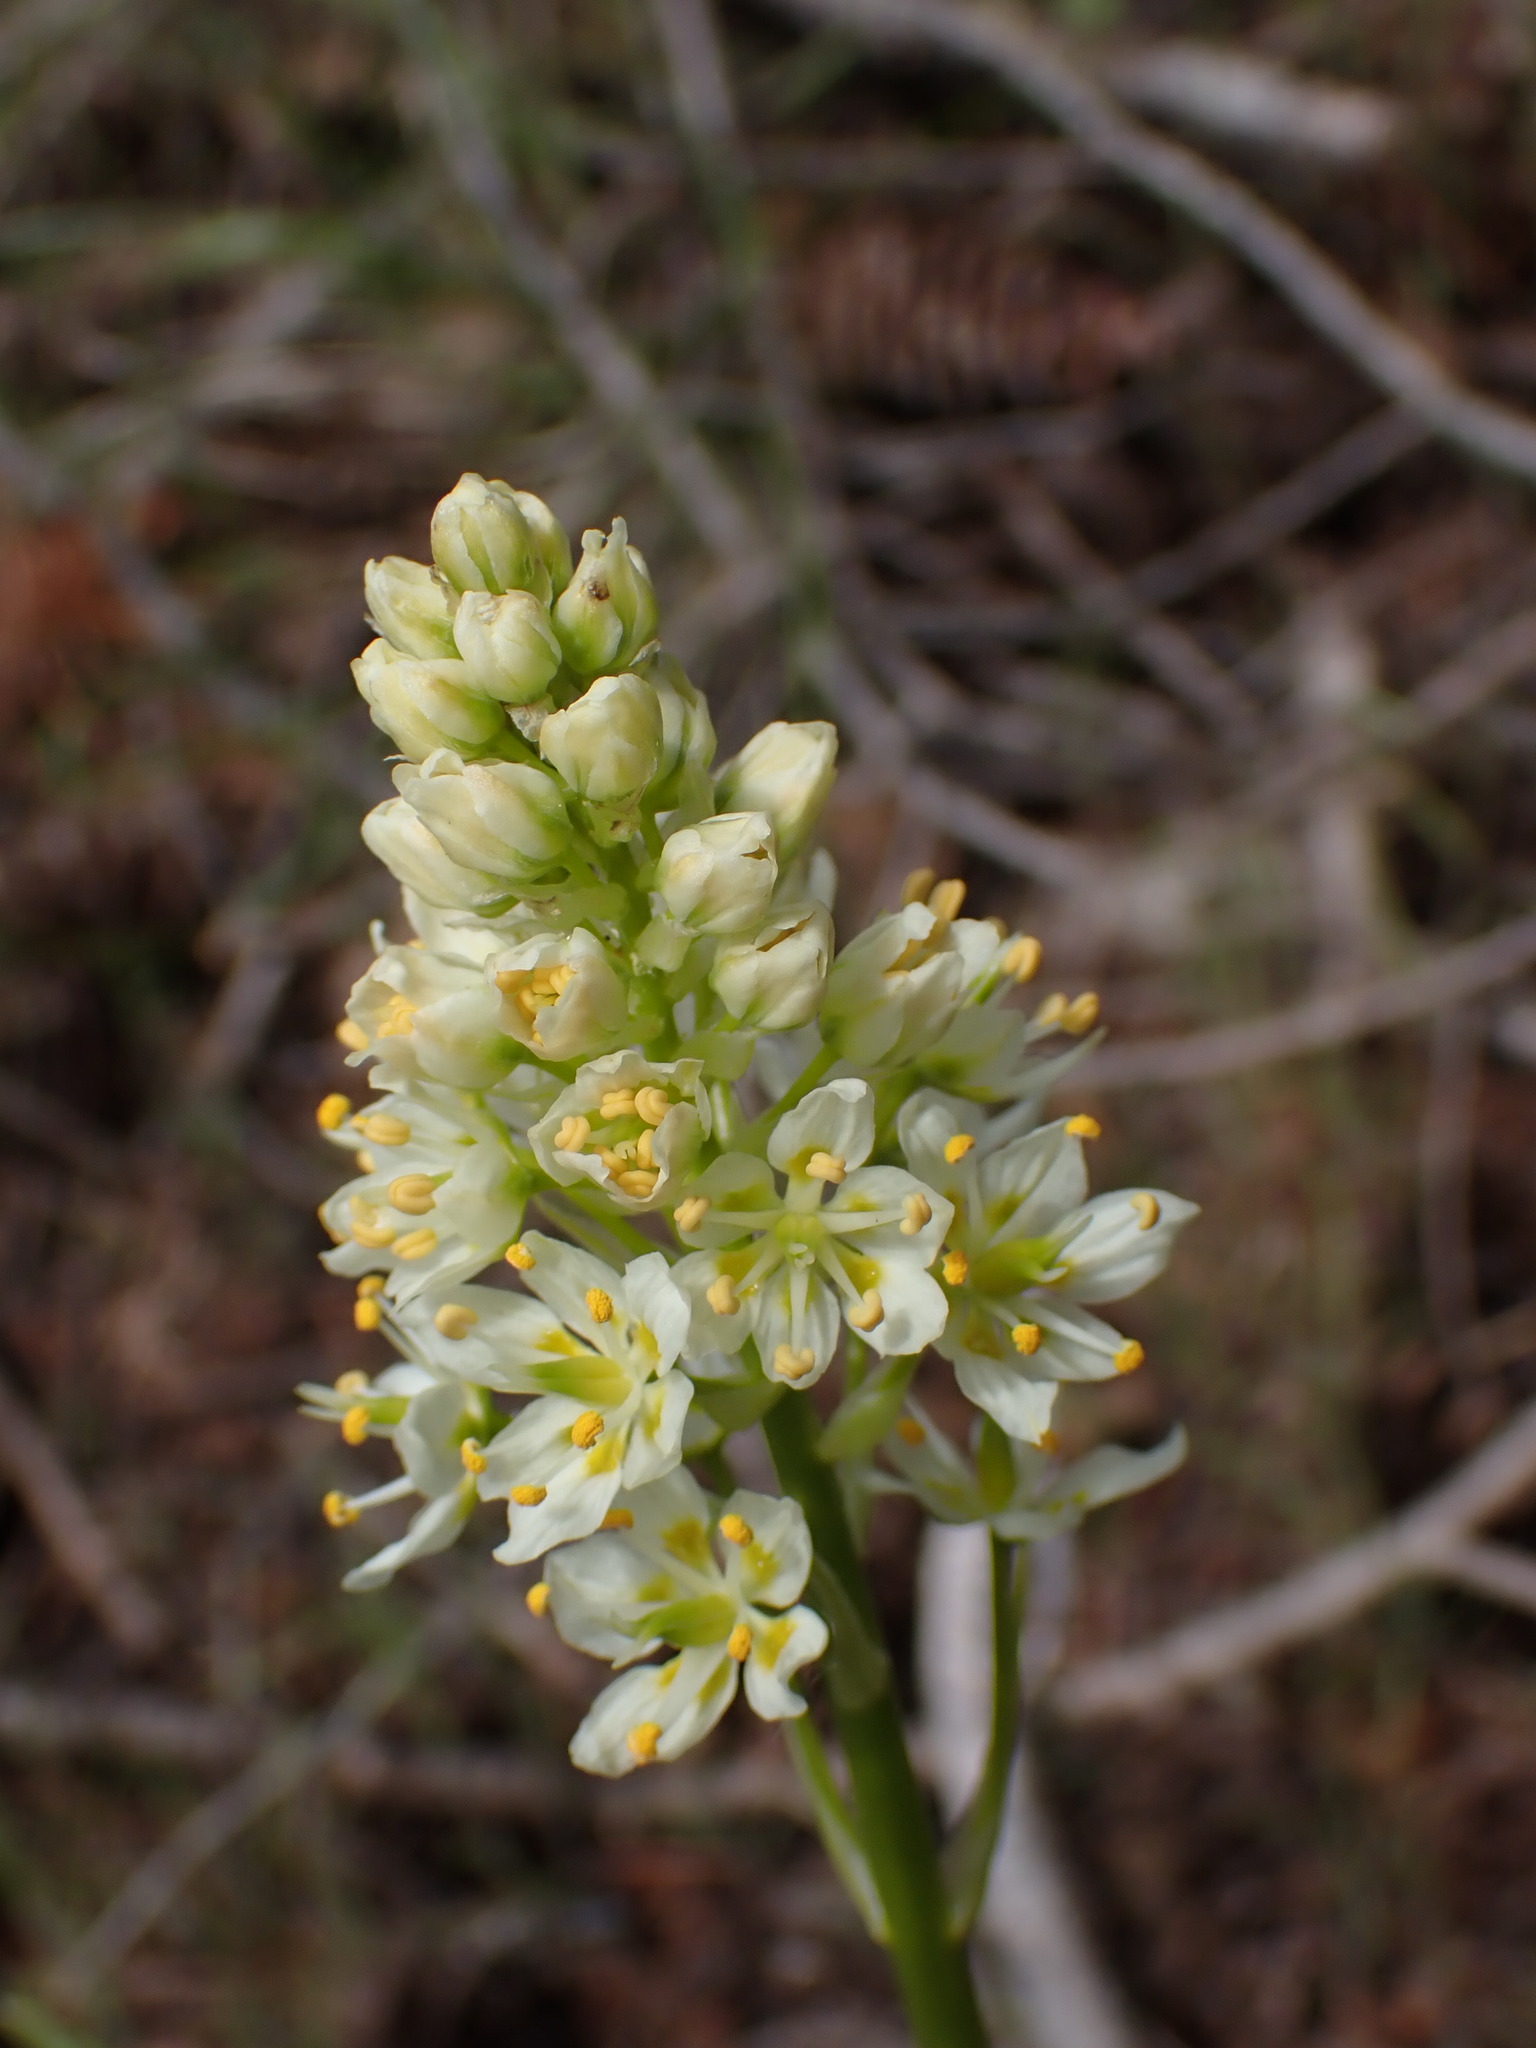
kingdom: Plantae
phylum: Tracheophyta
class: Liliopsida
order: Liliales
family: Melanthiaceae
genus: Toxicoscordion
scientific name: Toxicoscordion venenosum
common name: Meadow death camas
